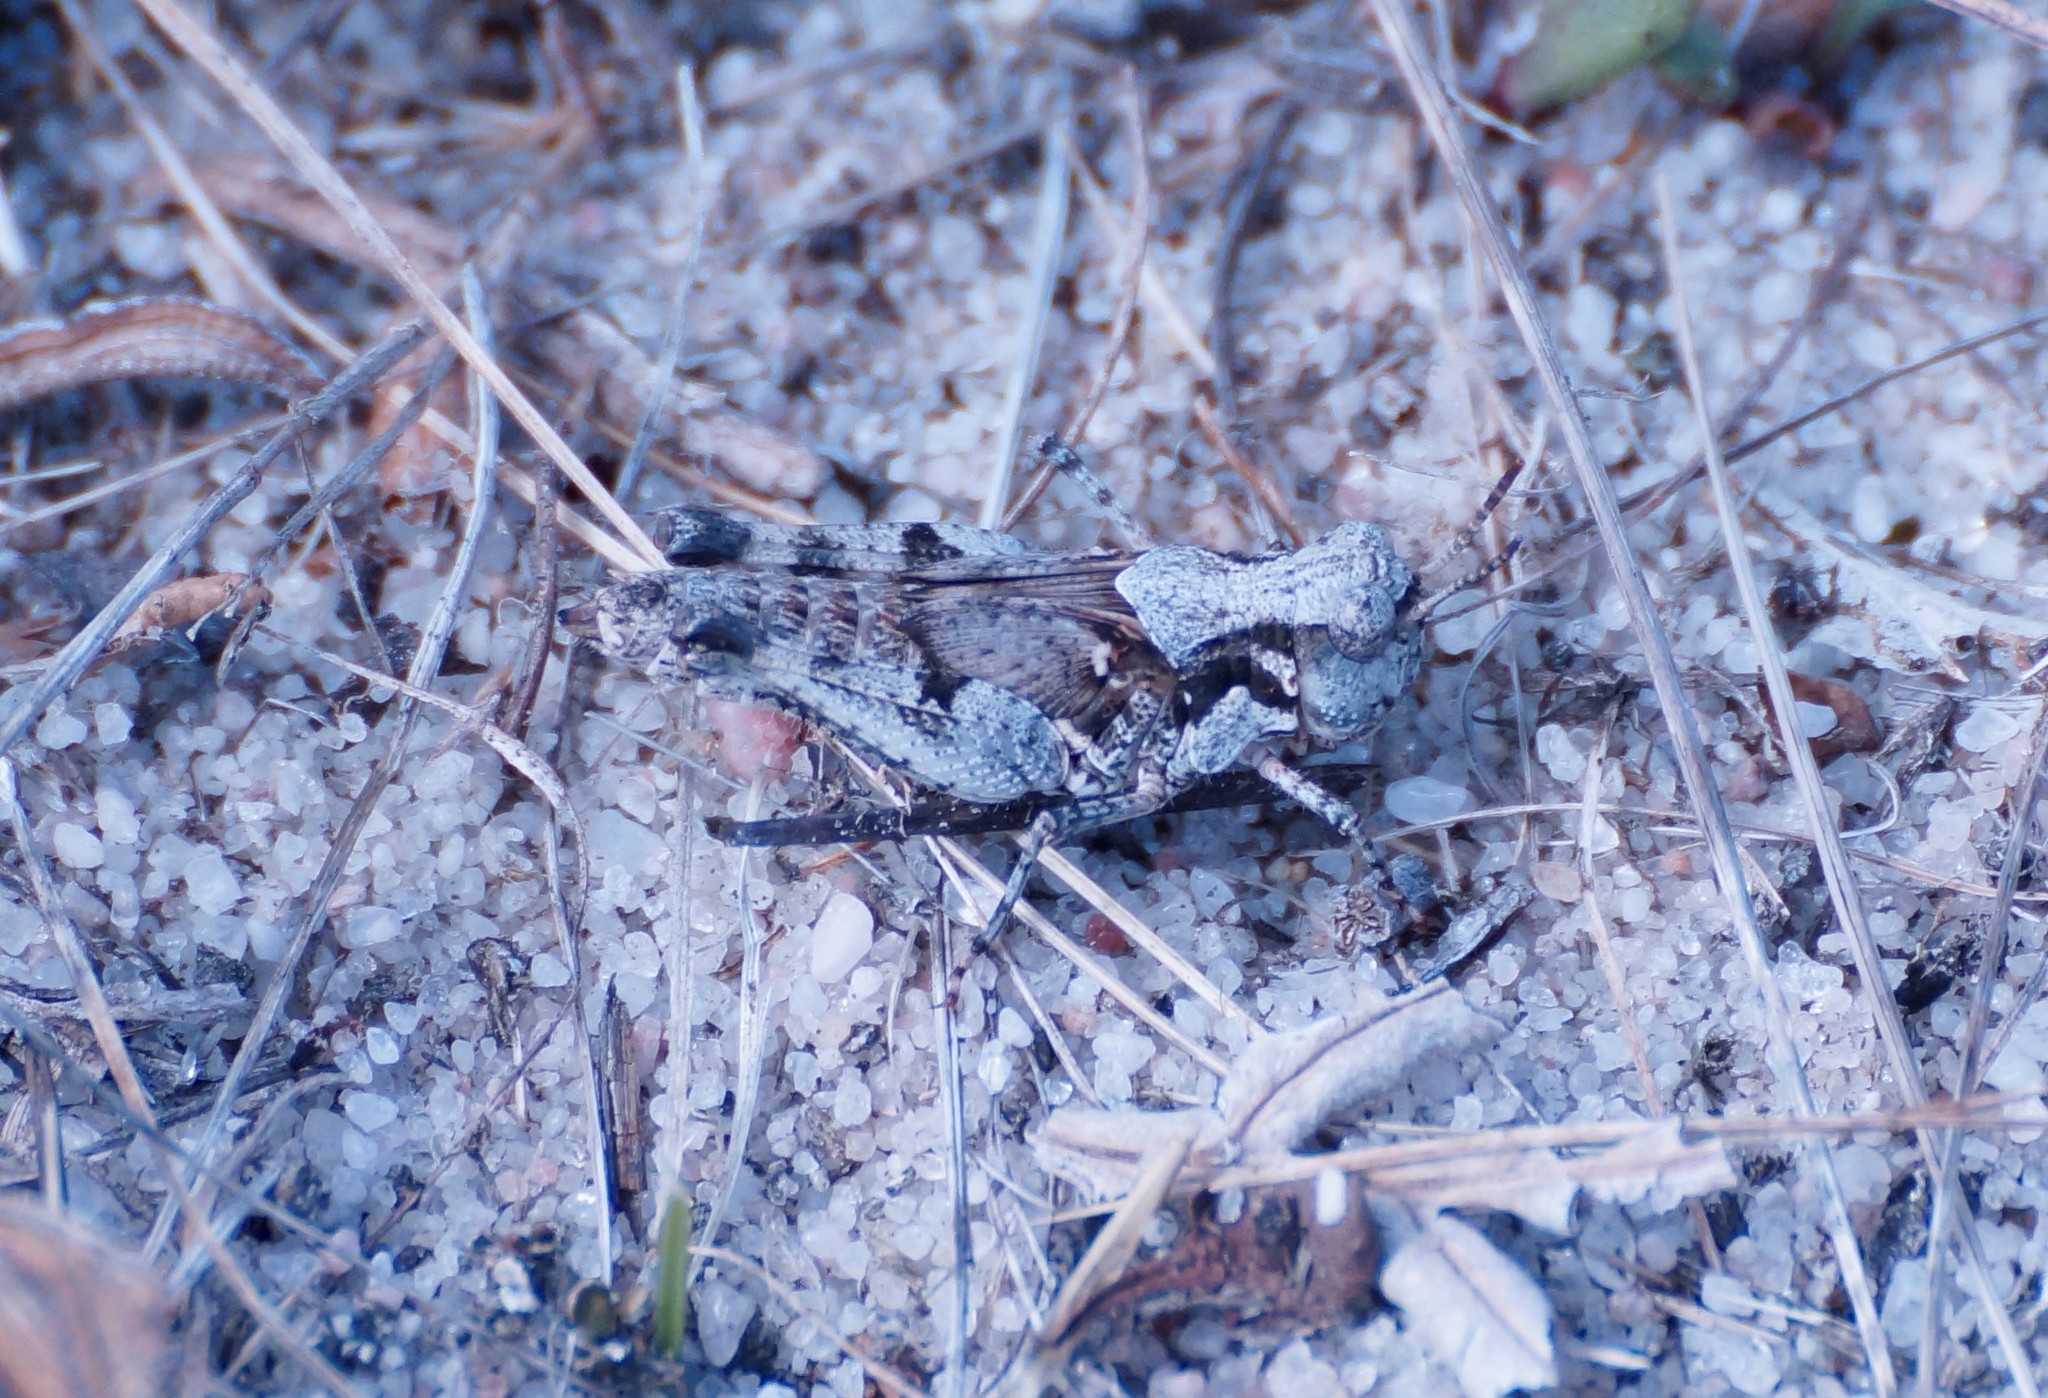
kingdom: Animalia
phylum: Arthropoda
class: Insecta
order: Orthoptera
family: Acrididae
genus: Pycnostictus
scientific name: Pycnostictus seriatus
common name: Common bandwing
